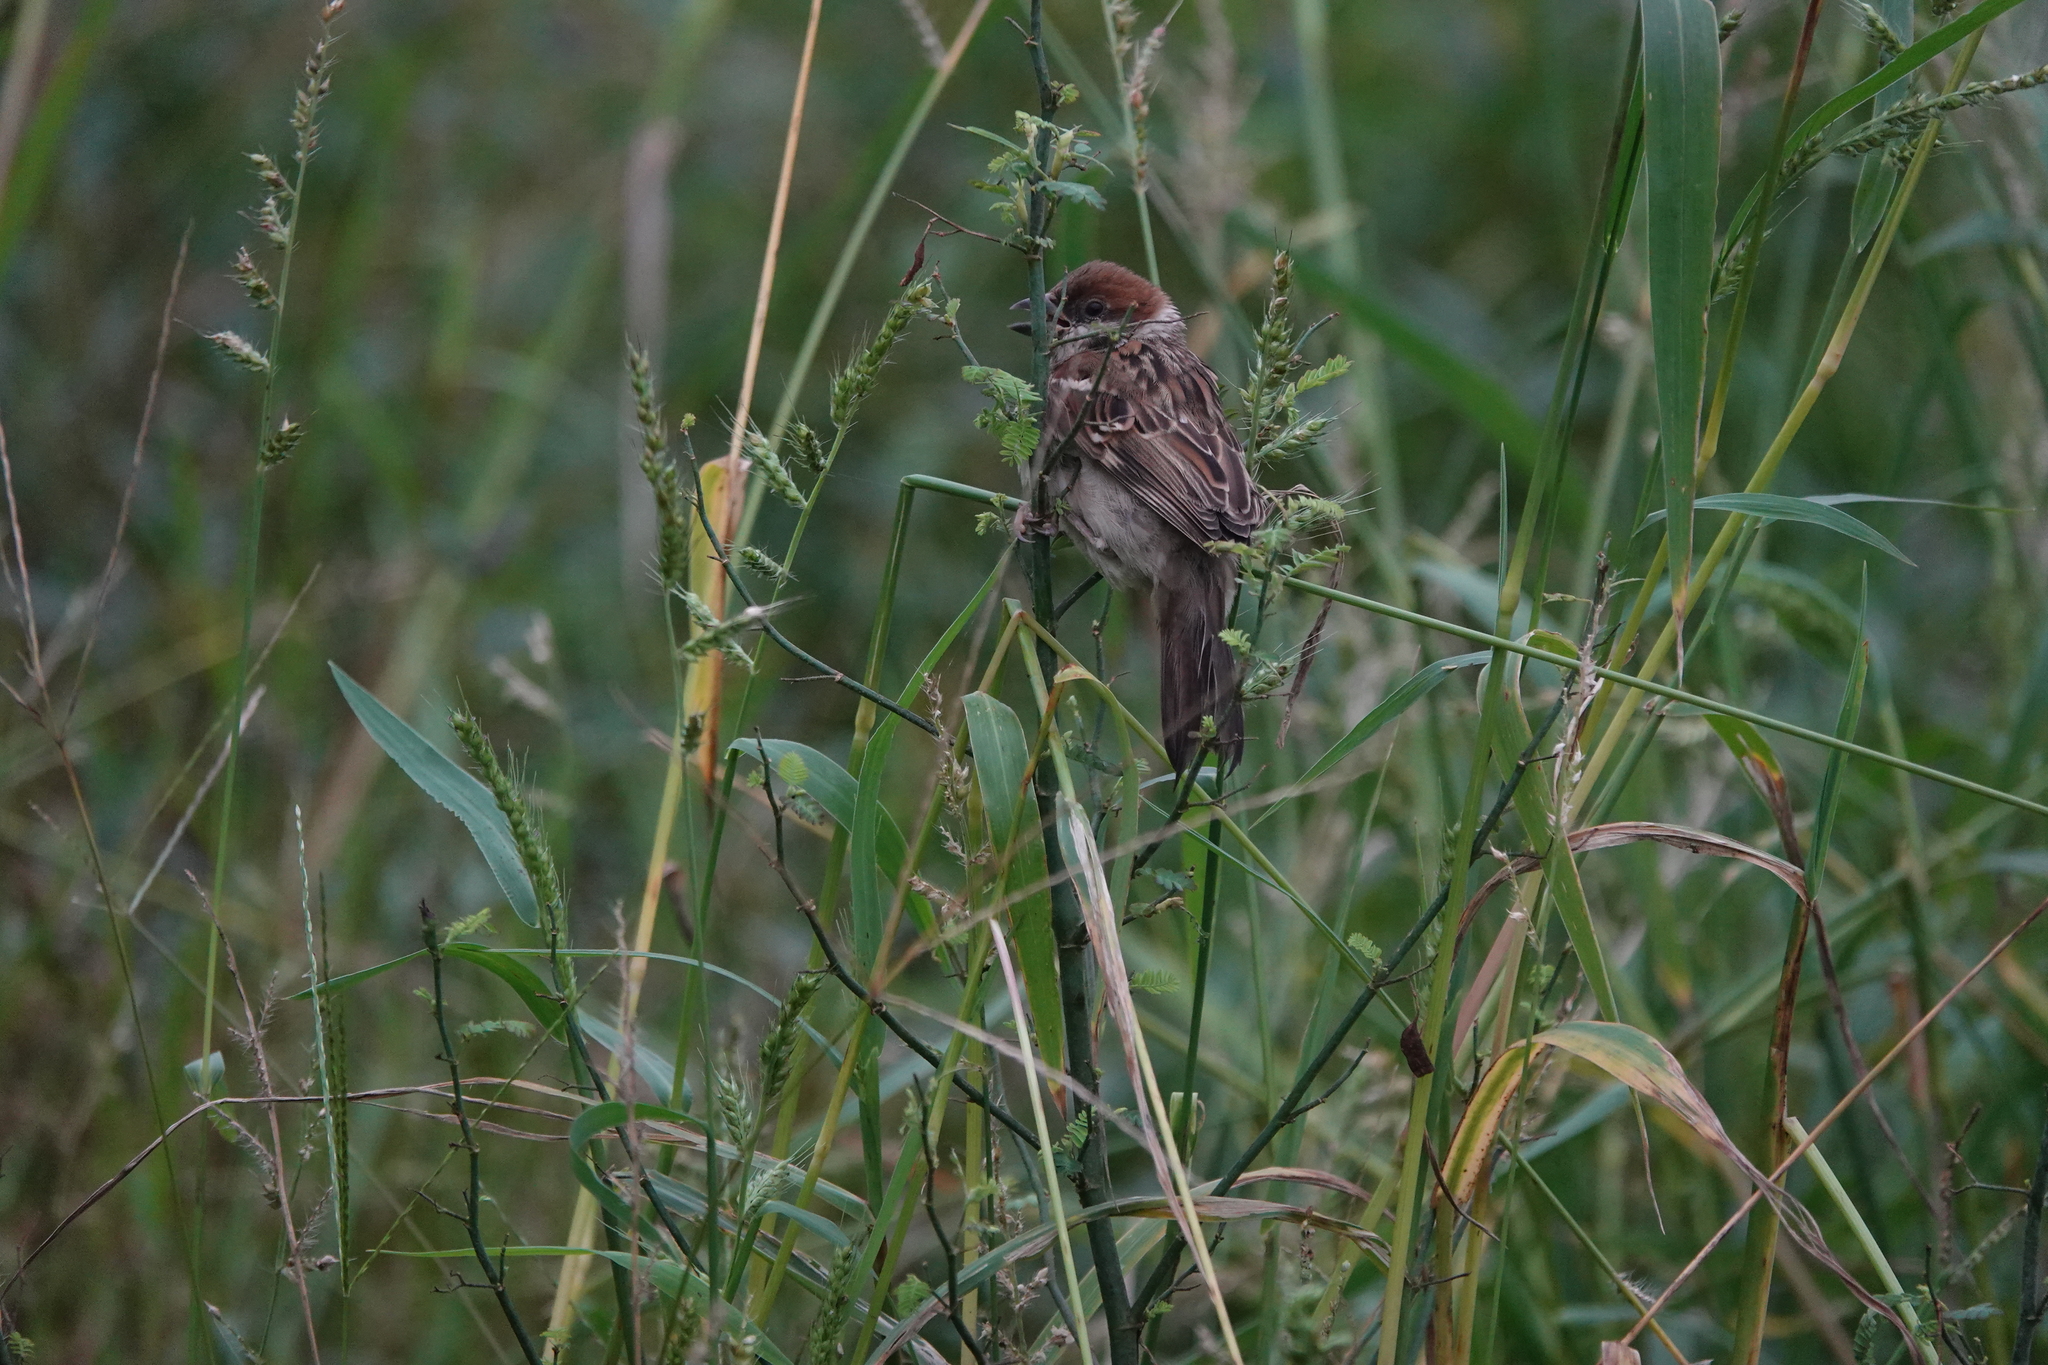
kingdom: Animalia
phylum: Chordata
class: Aves
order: Passeriformes
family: Passeridae
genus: Passer
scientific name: Passer montanus
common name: Eurasian tree sparrow
